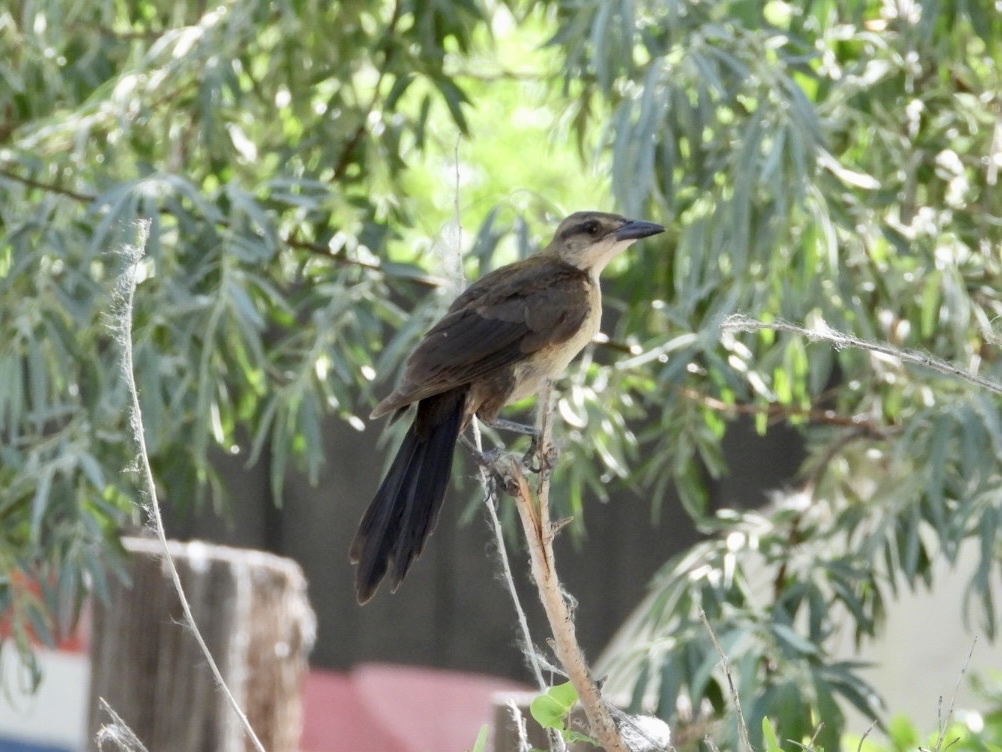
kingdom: Animalia
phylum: Chordata
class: Aves
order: Passeriformes
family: Icteridae
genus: Quiscalus
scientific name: Quiscalus mexicanus
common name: Great-tailed grackle
